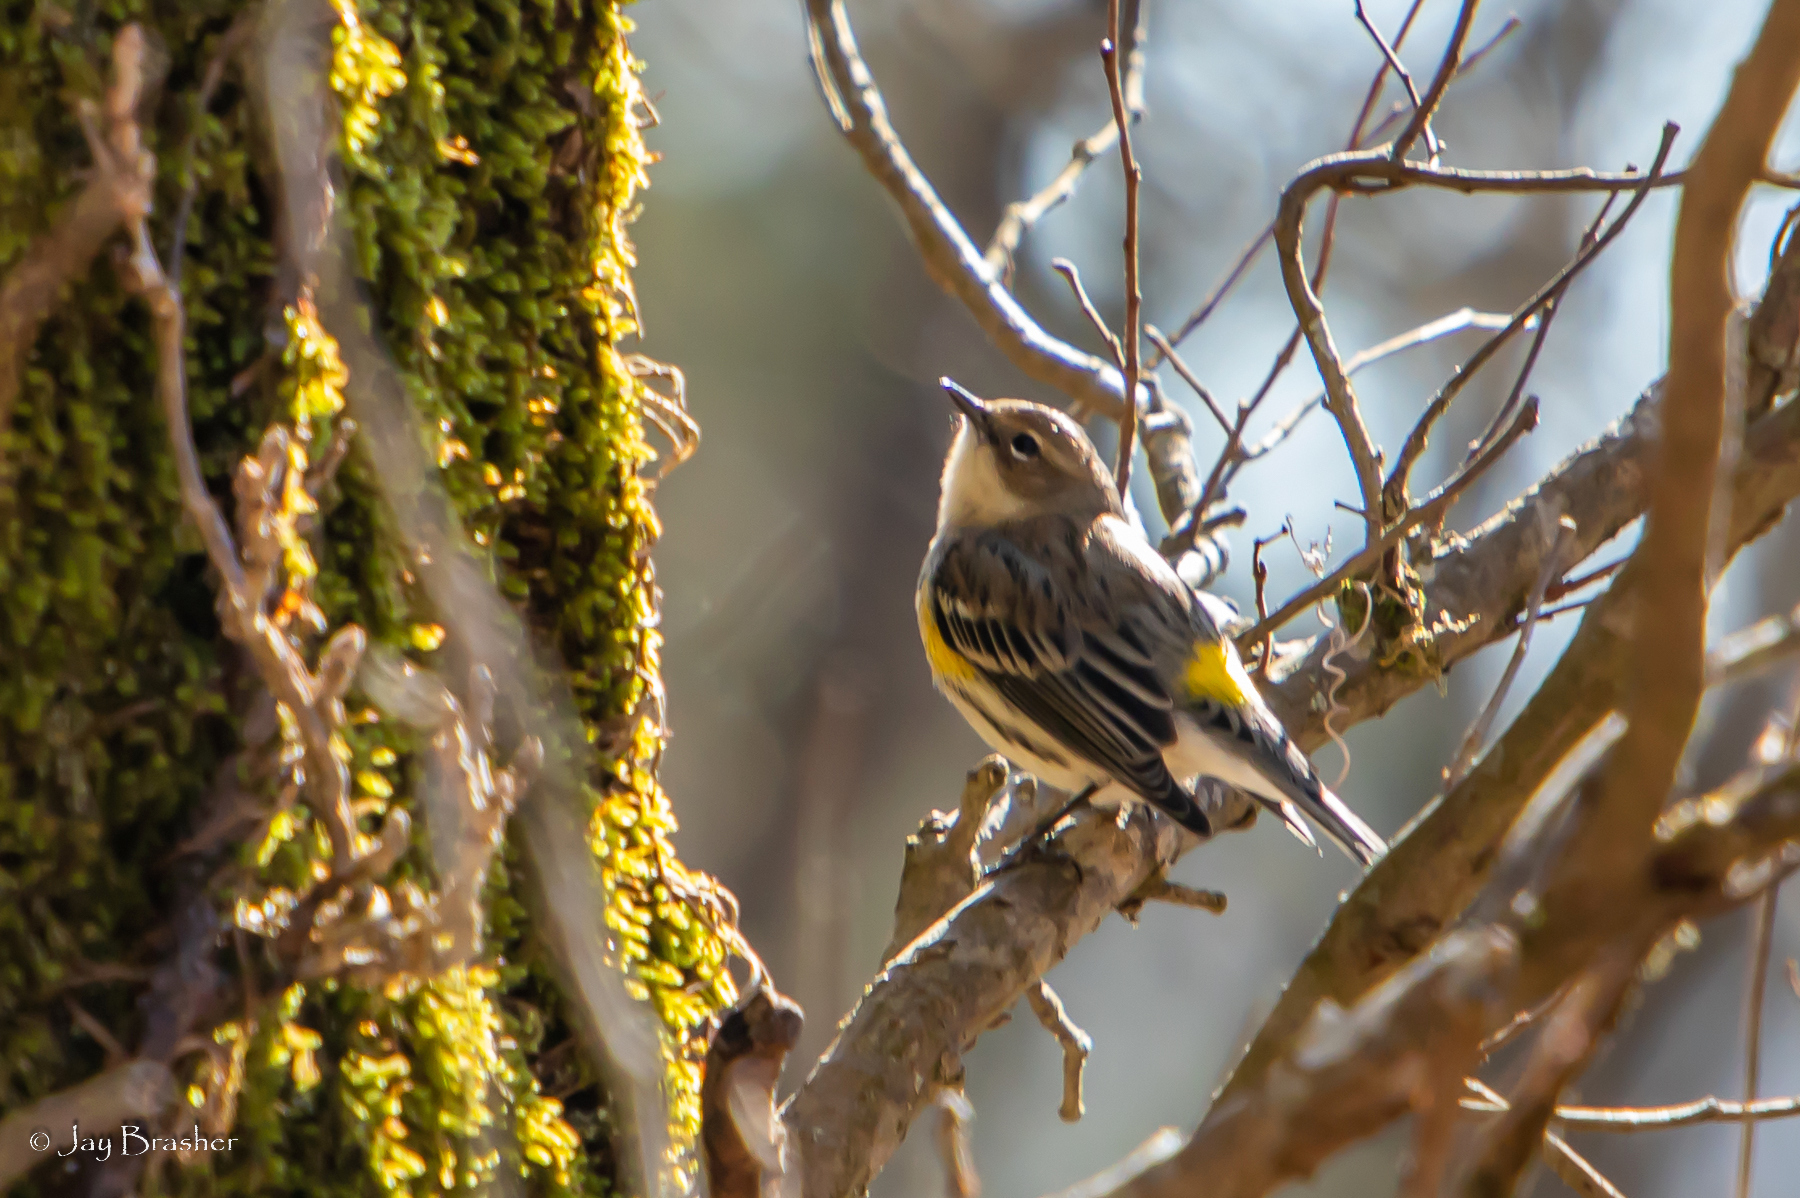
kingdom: Animalia
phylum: Chordata
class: Aves
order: Passeriformes
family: Parulidae
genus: Setophaga
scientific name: Setophaga coronata
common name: Myrtle warbler
